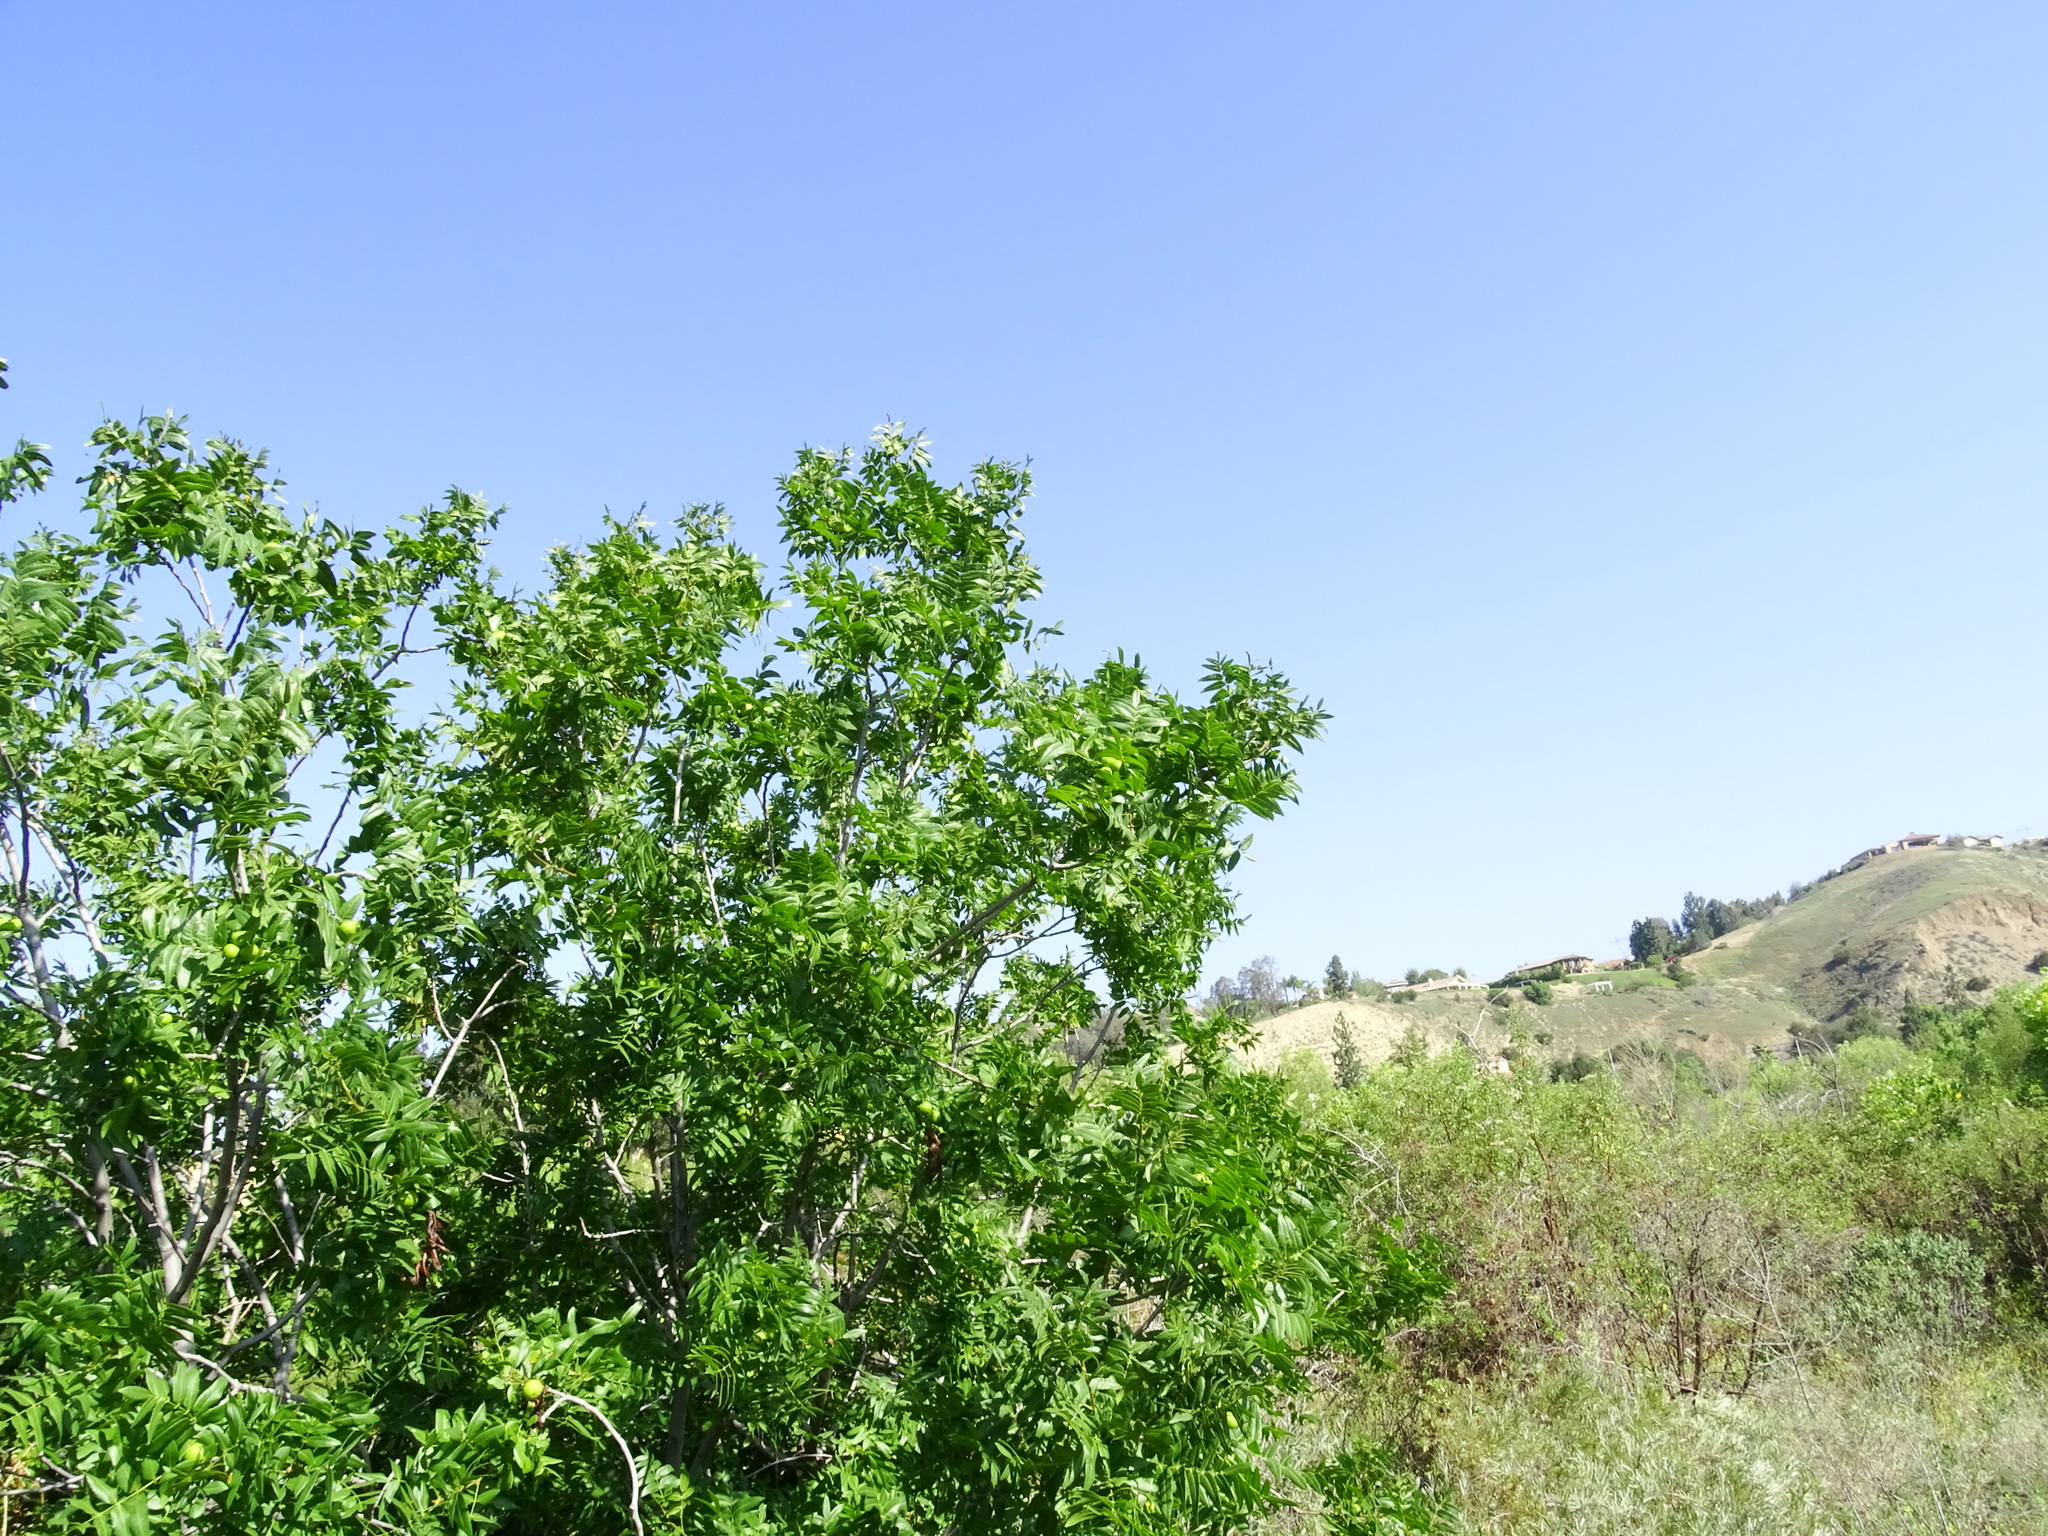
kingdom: Plantae
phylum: Tracheophyta
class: Magnoliopsida
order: Fagales
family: Juglandaceae
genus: Juglans
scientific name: Juglans californica
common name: Southern california black walnut
